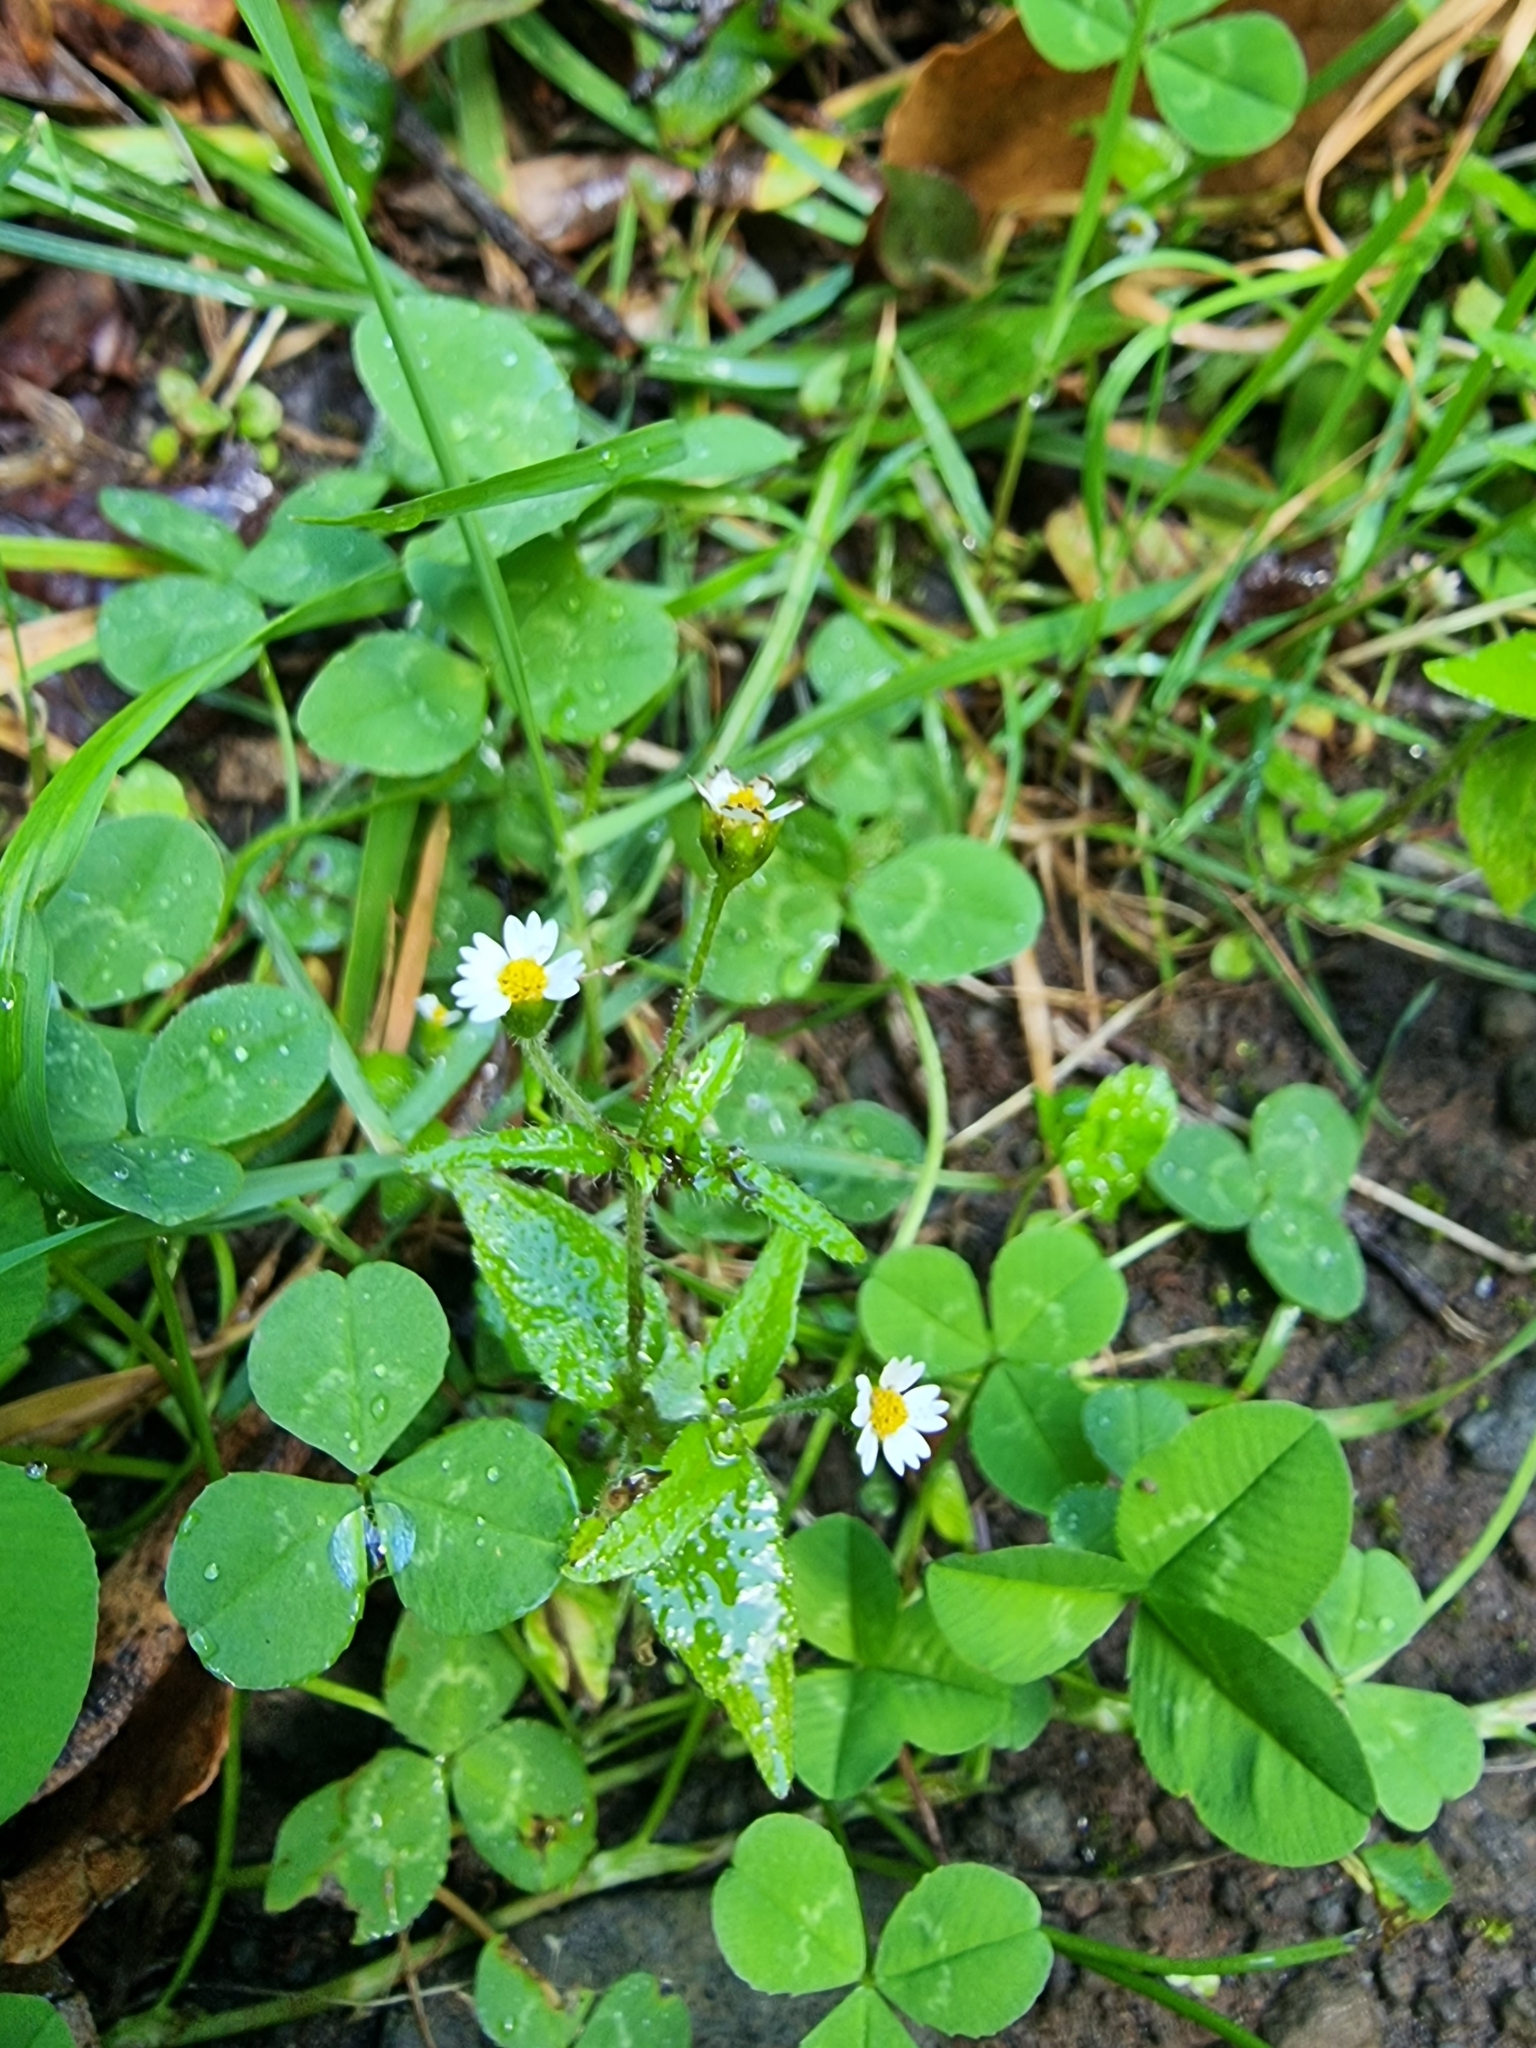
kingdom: Plantae
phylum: Tracheophyta
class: Magnoliopsida
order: Asterales
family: Asteraceae
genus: Galinsoga
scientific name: Galinsoga quadriradiata
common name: Shaggy soldier
